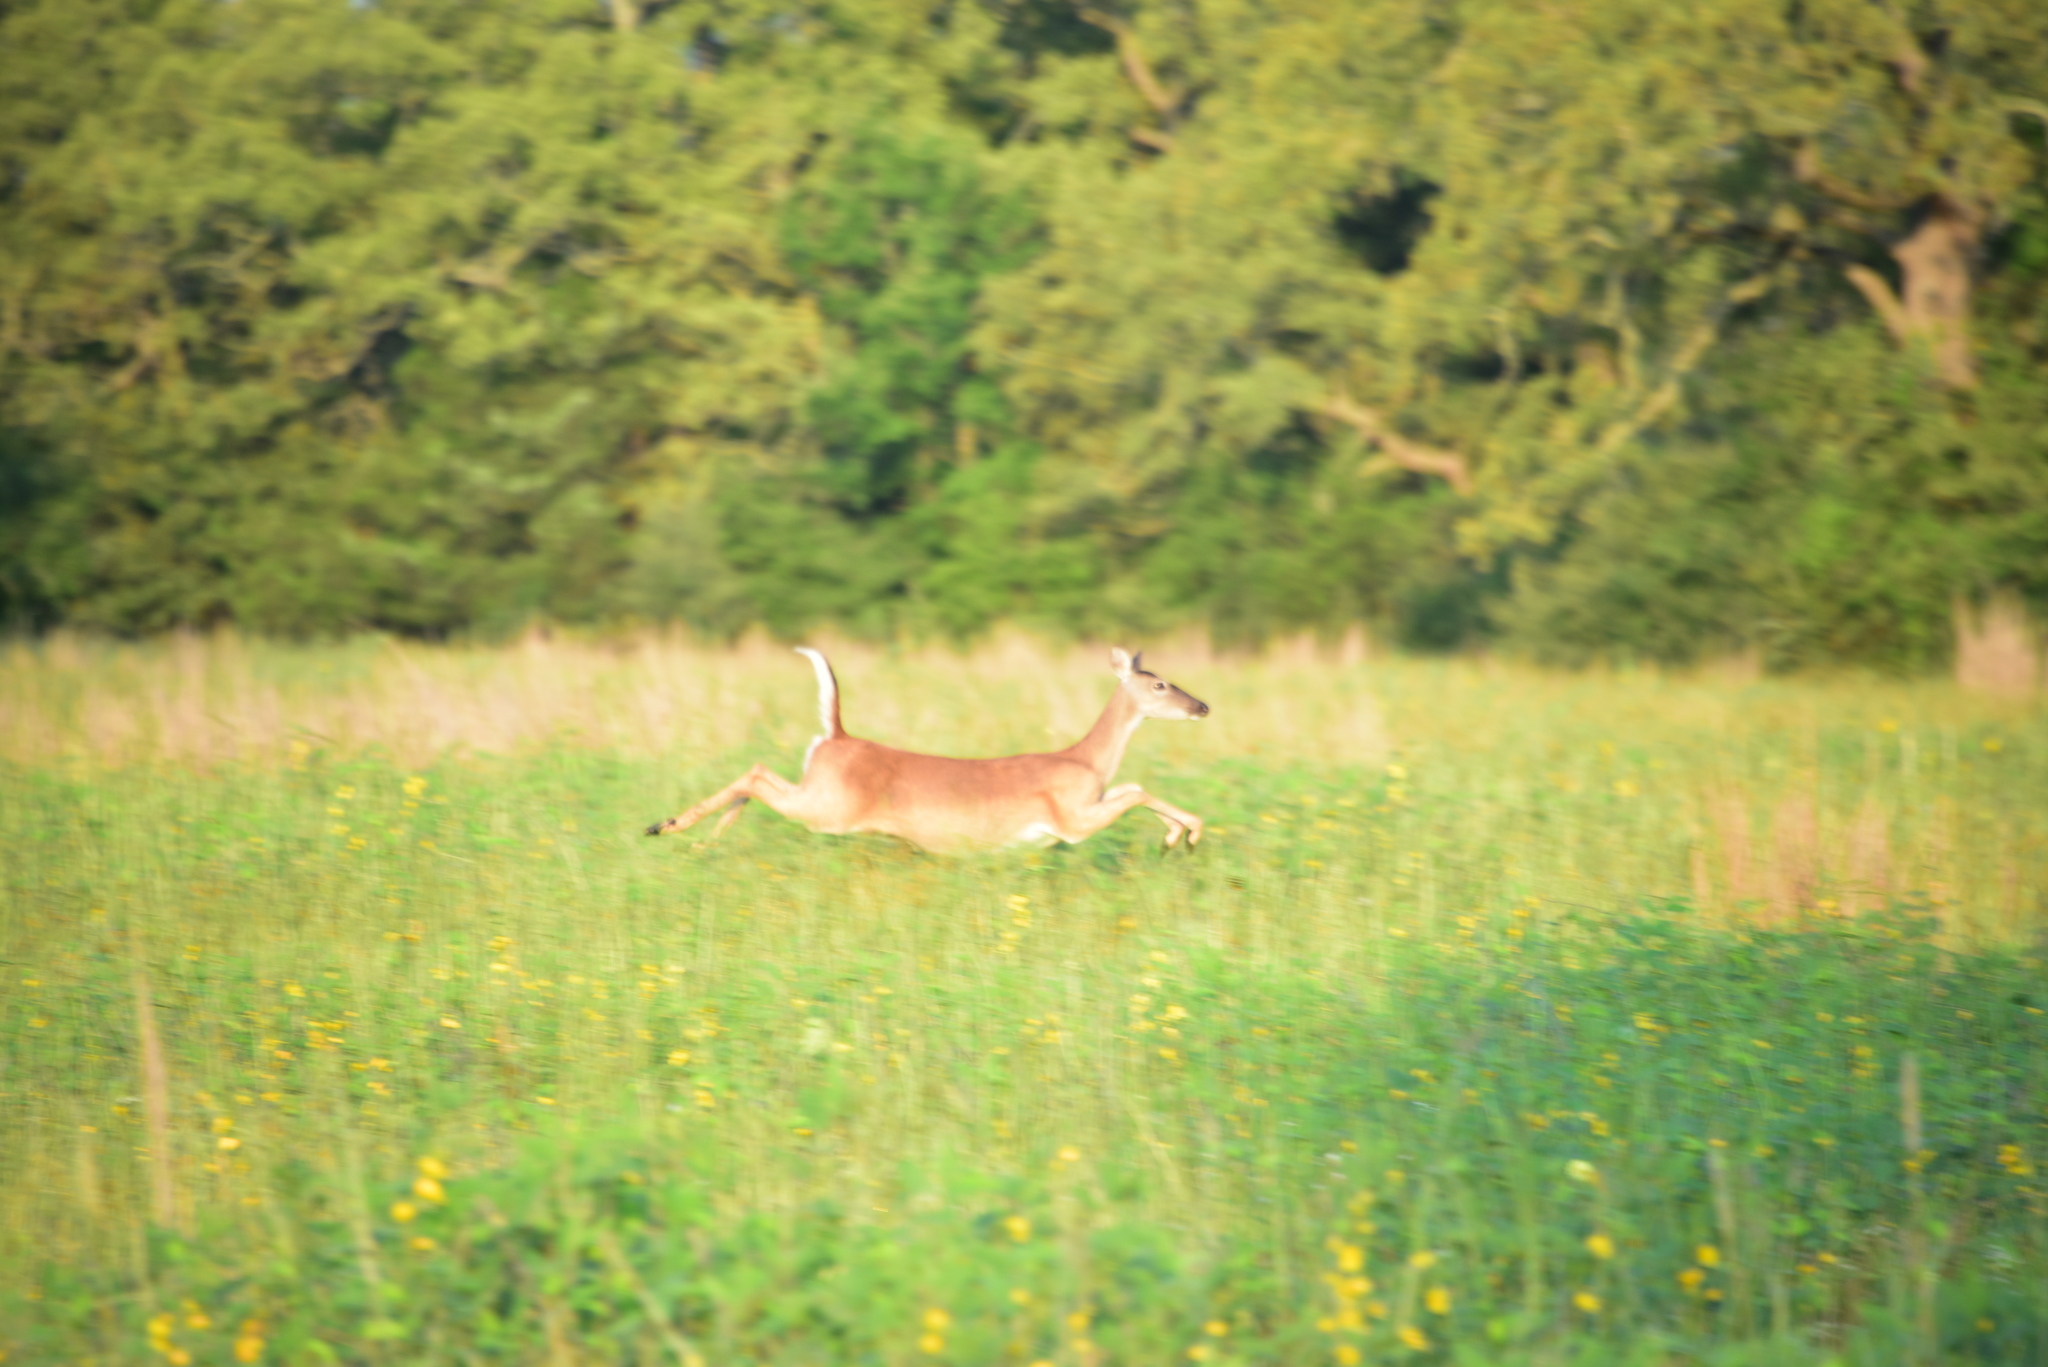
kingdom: Animalia
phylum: Chordata
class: Mammalia
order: Artiodactyla
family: Cervidae
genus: Odocoileus
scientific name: Odocoileus virginianus
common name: White-tailed deer
